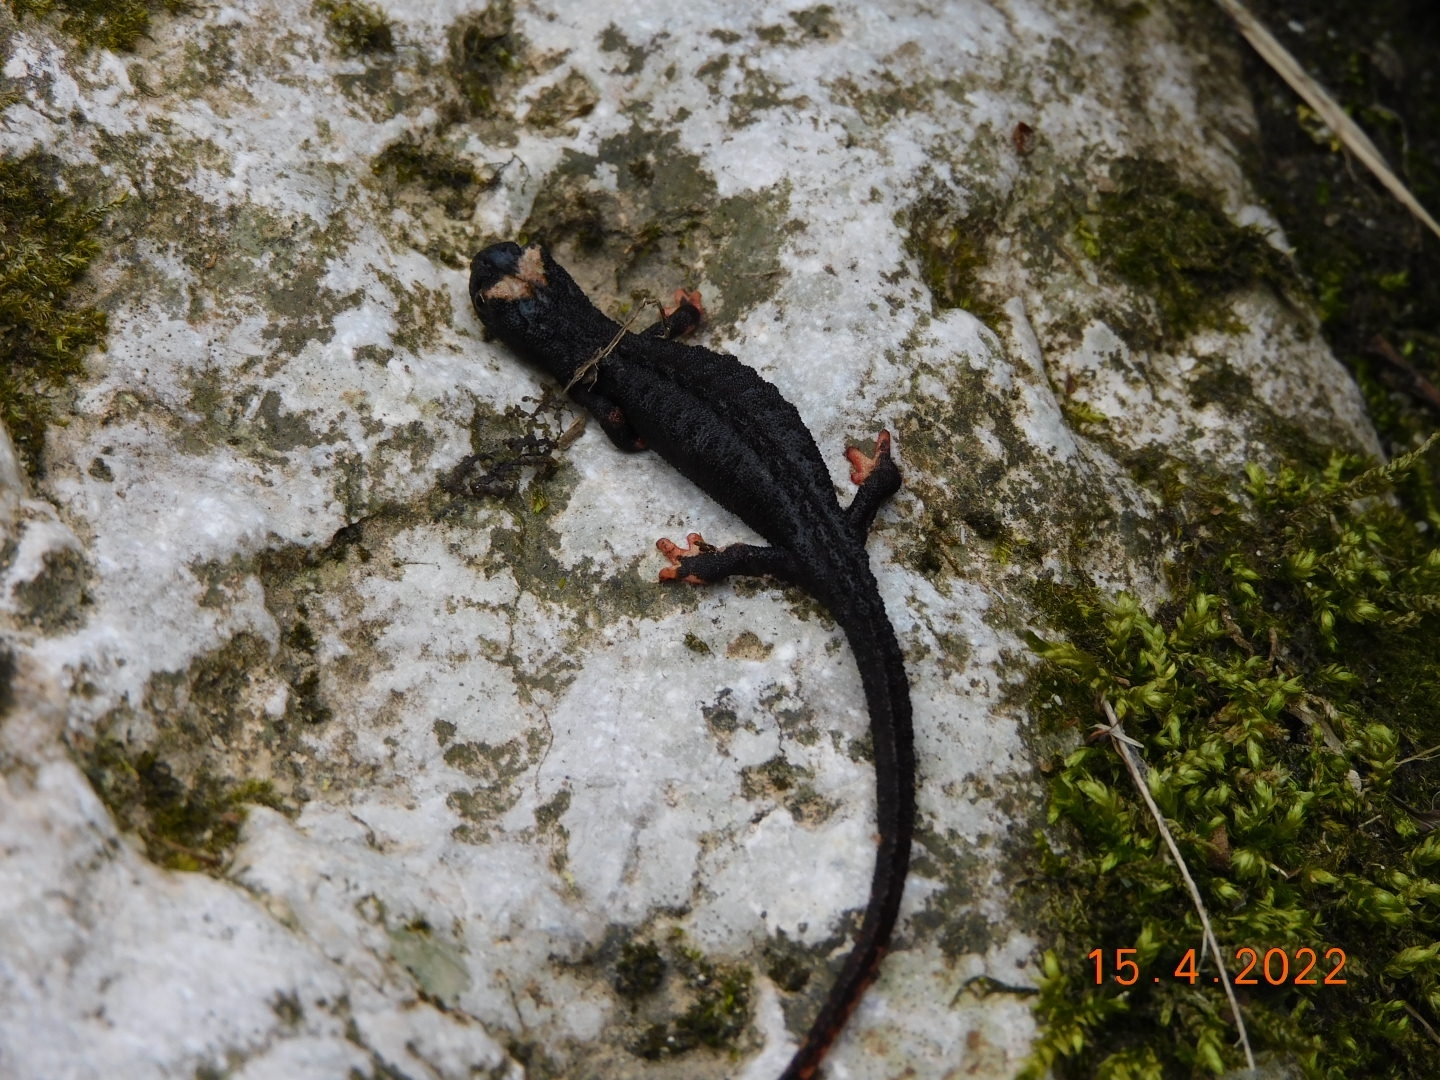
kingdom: Animalia
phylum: Chordata
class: Amphibia
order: Caudata
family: Salamandridae
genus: Salamandrina
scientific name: Salamandrina terdigitata
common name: Southern spectacled salamander
